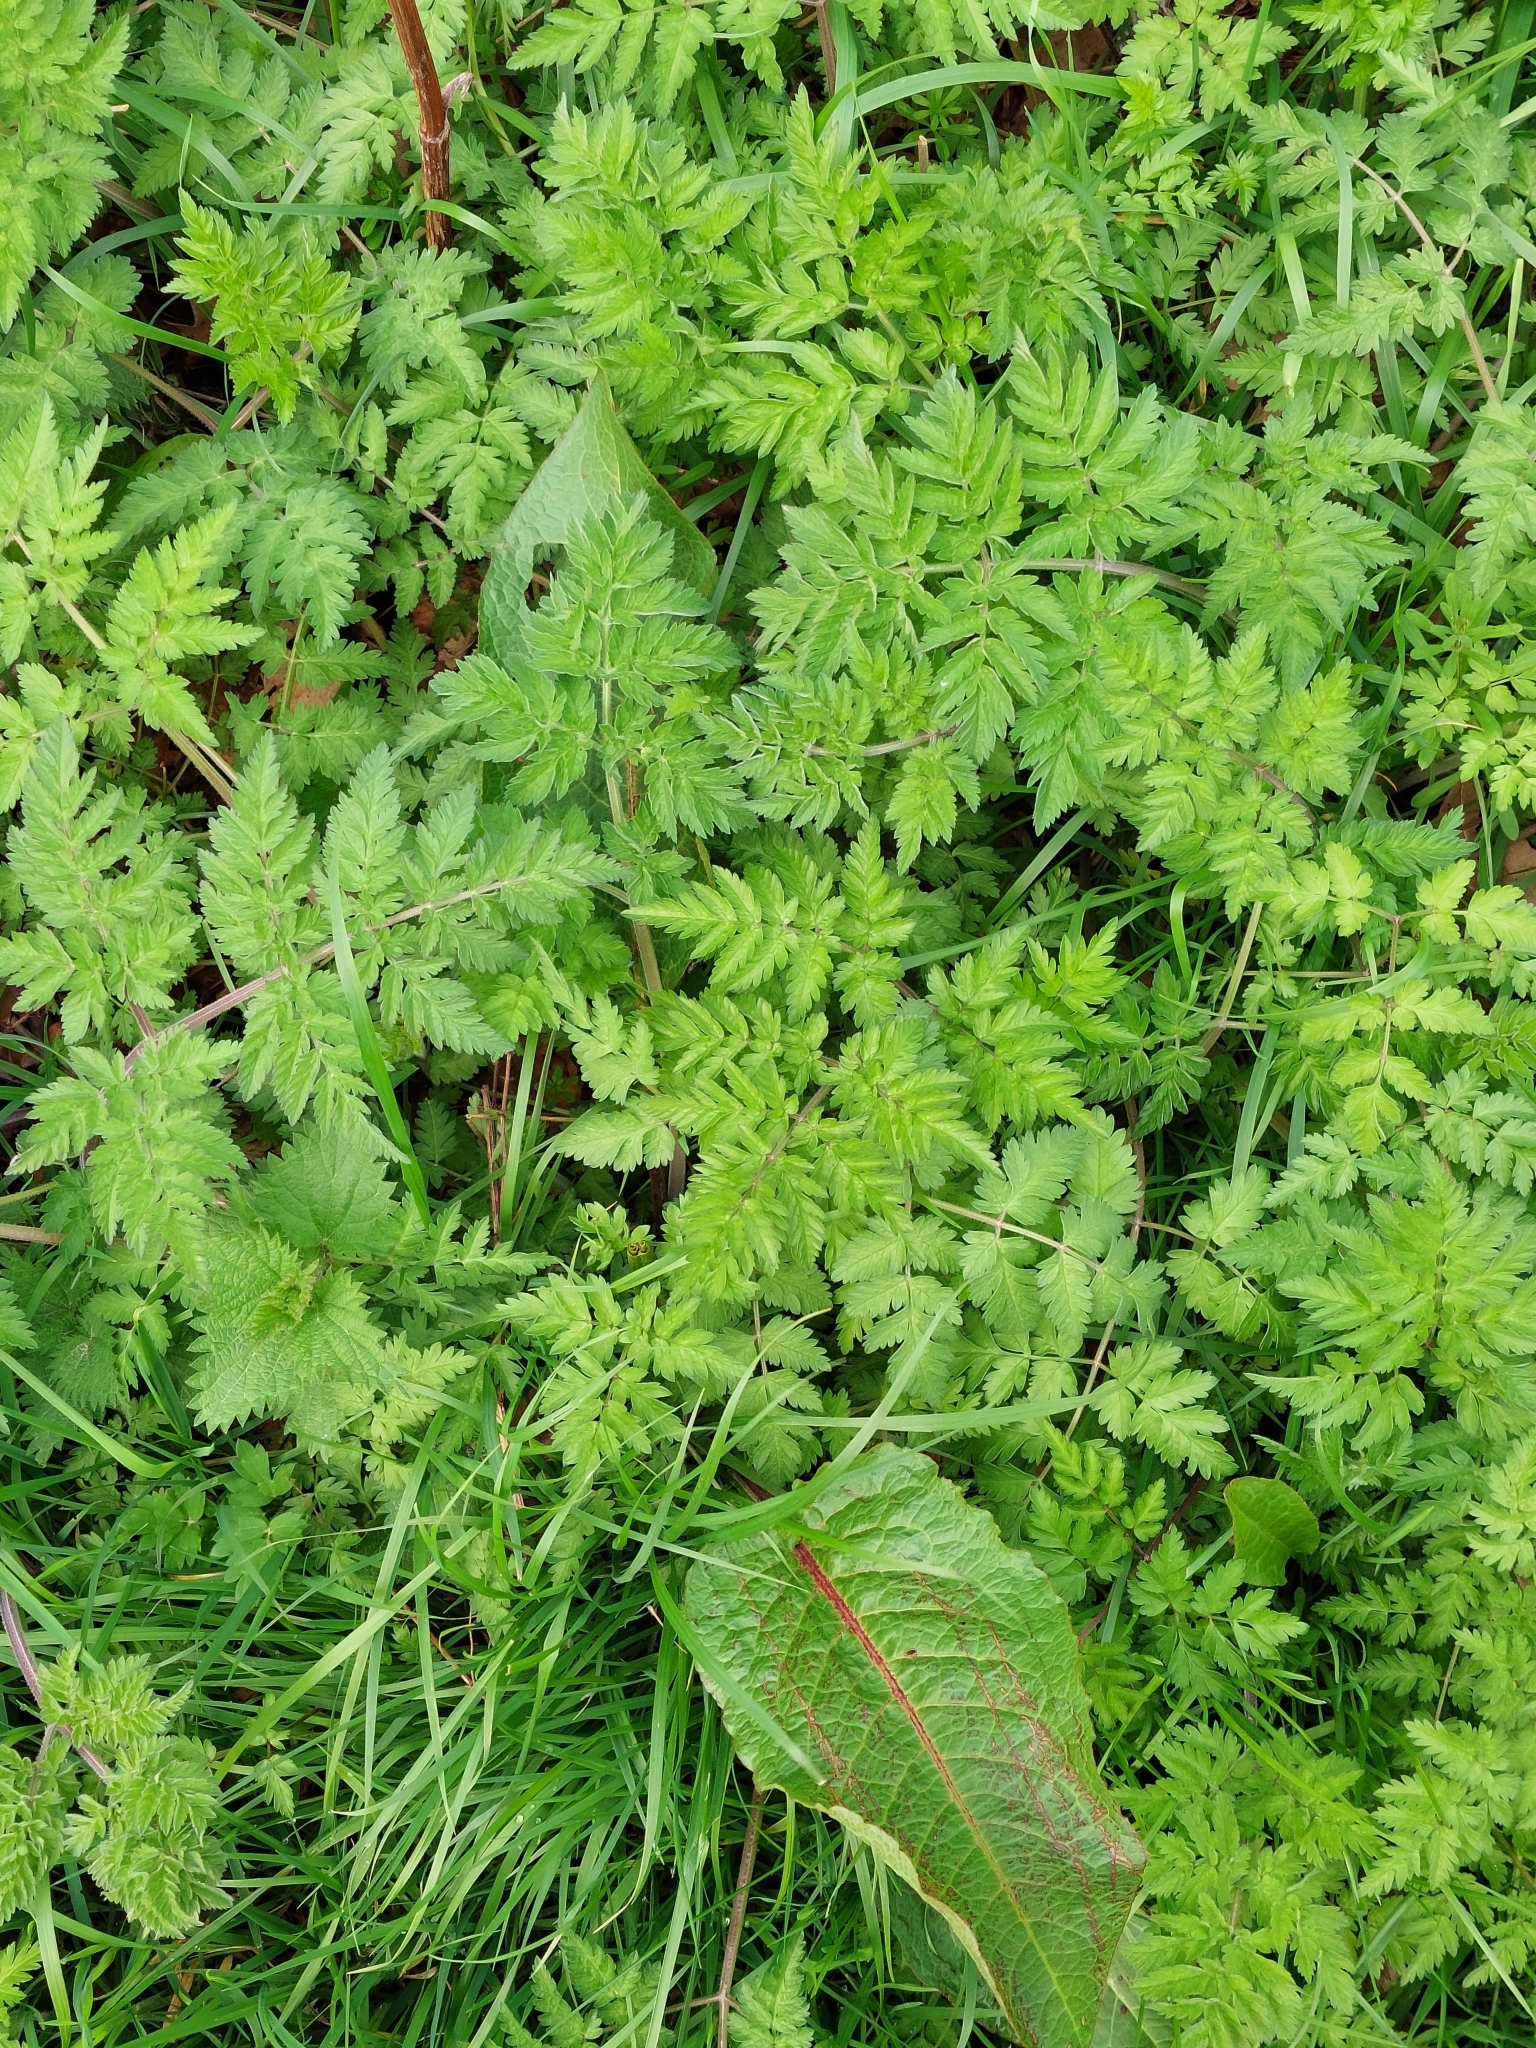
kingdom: Plantae
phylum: Tracheophyta
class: Magnoliopsida
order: Apiales
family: Apiaceae
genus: Anthriscus
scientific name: Anthriscus sylvestris
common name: Cow parsley
